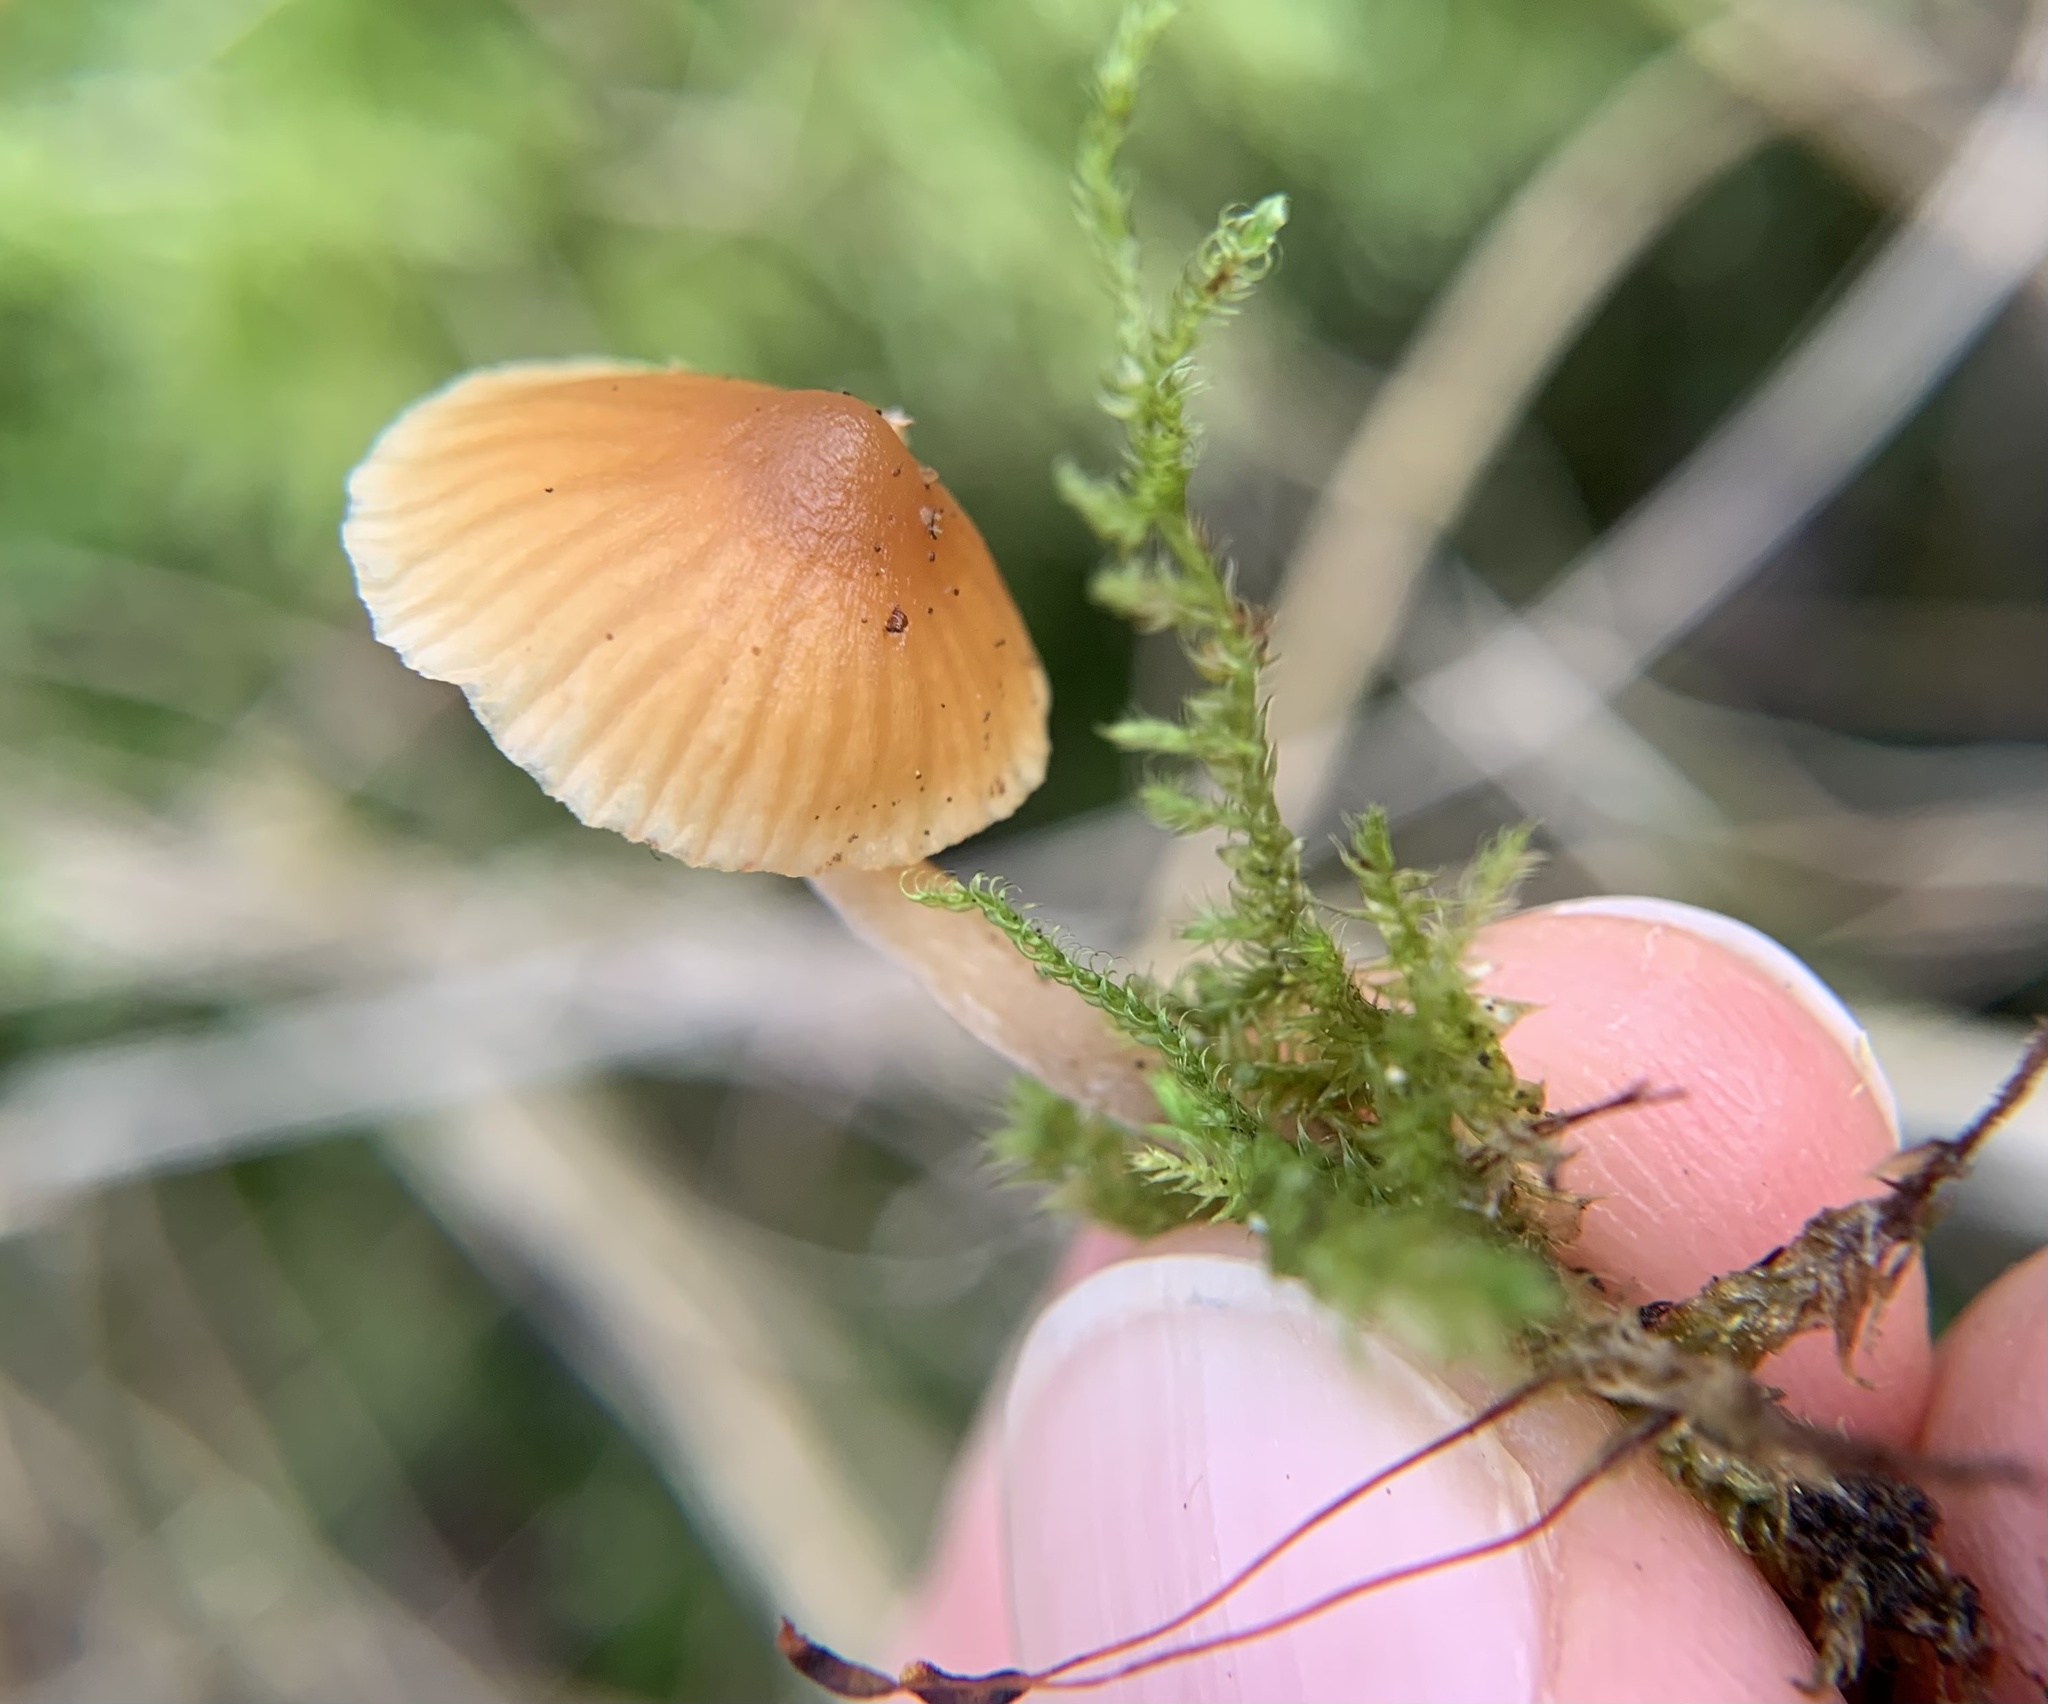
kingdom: Fungi
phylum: Basidiomycota
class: Agaricomycetes
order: Agaricales
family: Hymenogastraceae
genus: Galerina
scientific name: Galerina clavata
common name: Ribbed bell
